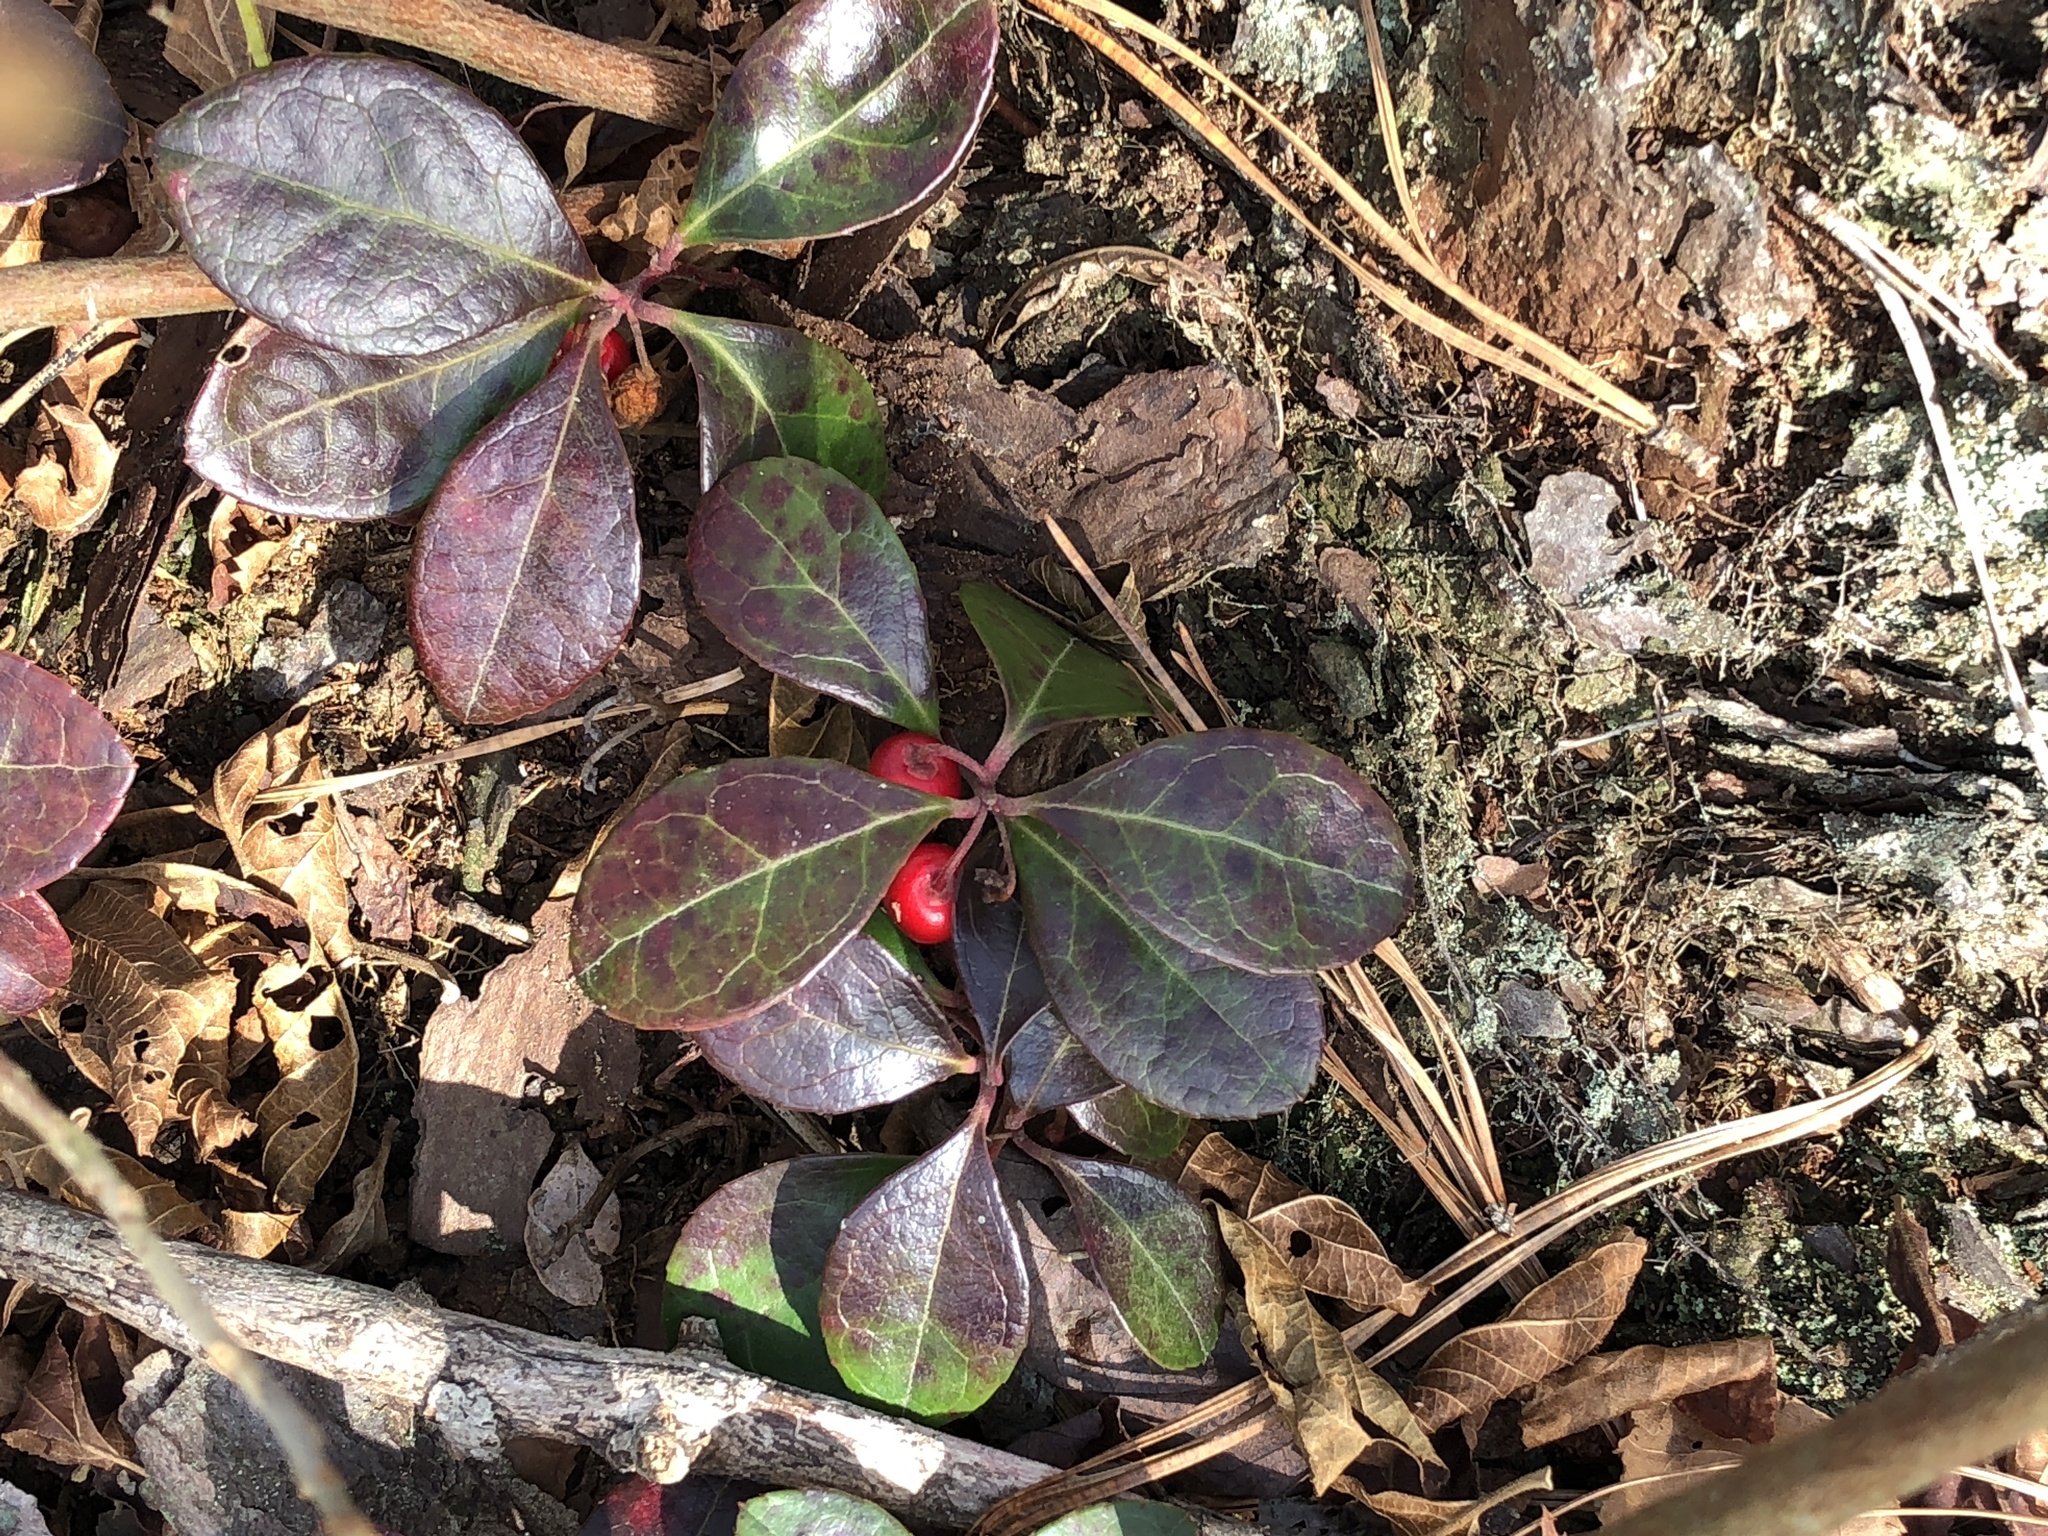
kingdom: Plantae
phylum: Tracheophyta
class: Magnoliopsida
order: Ericales
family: Ericaceae
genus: Gaultheria
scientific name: Gaultheria procumbens
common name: Checkerberry
